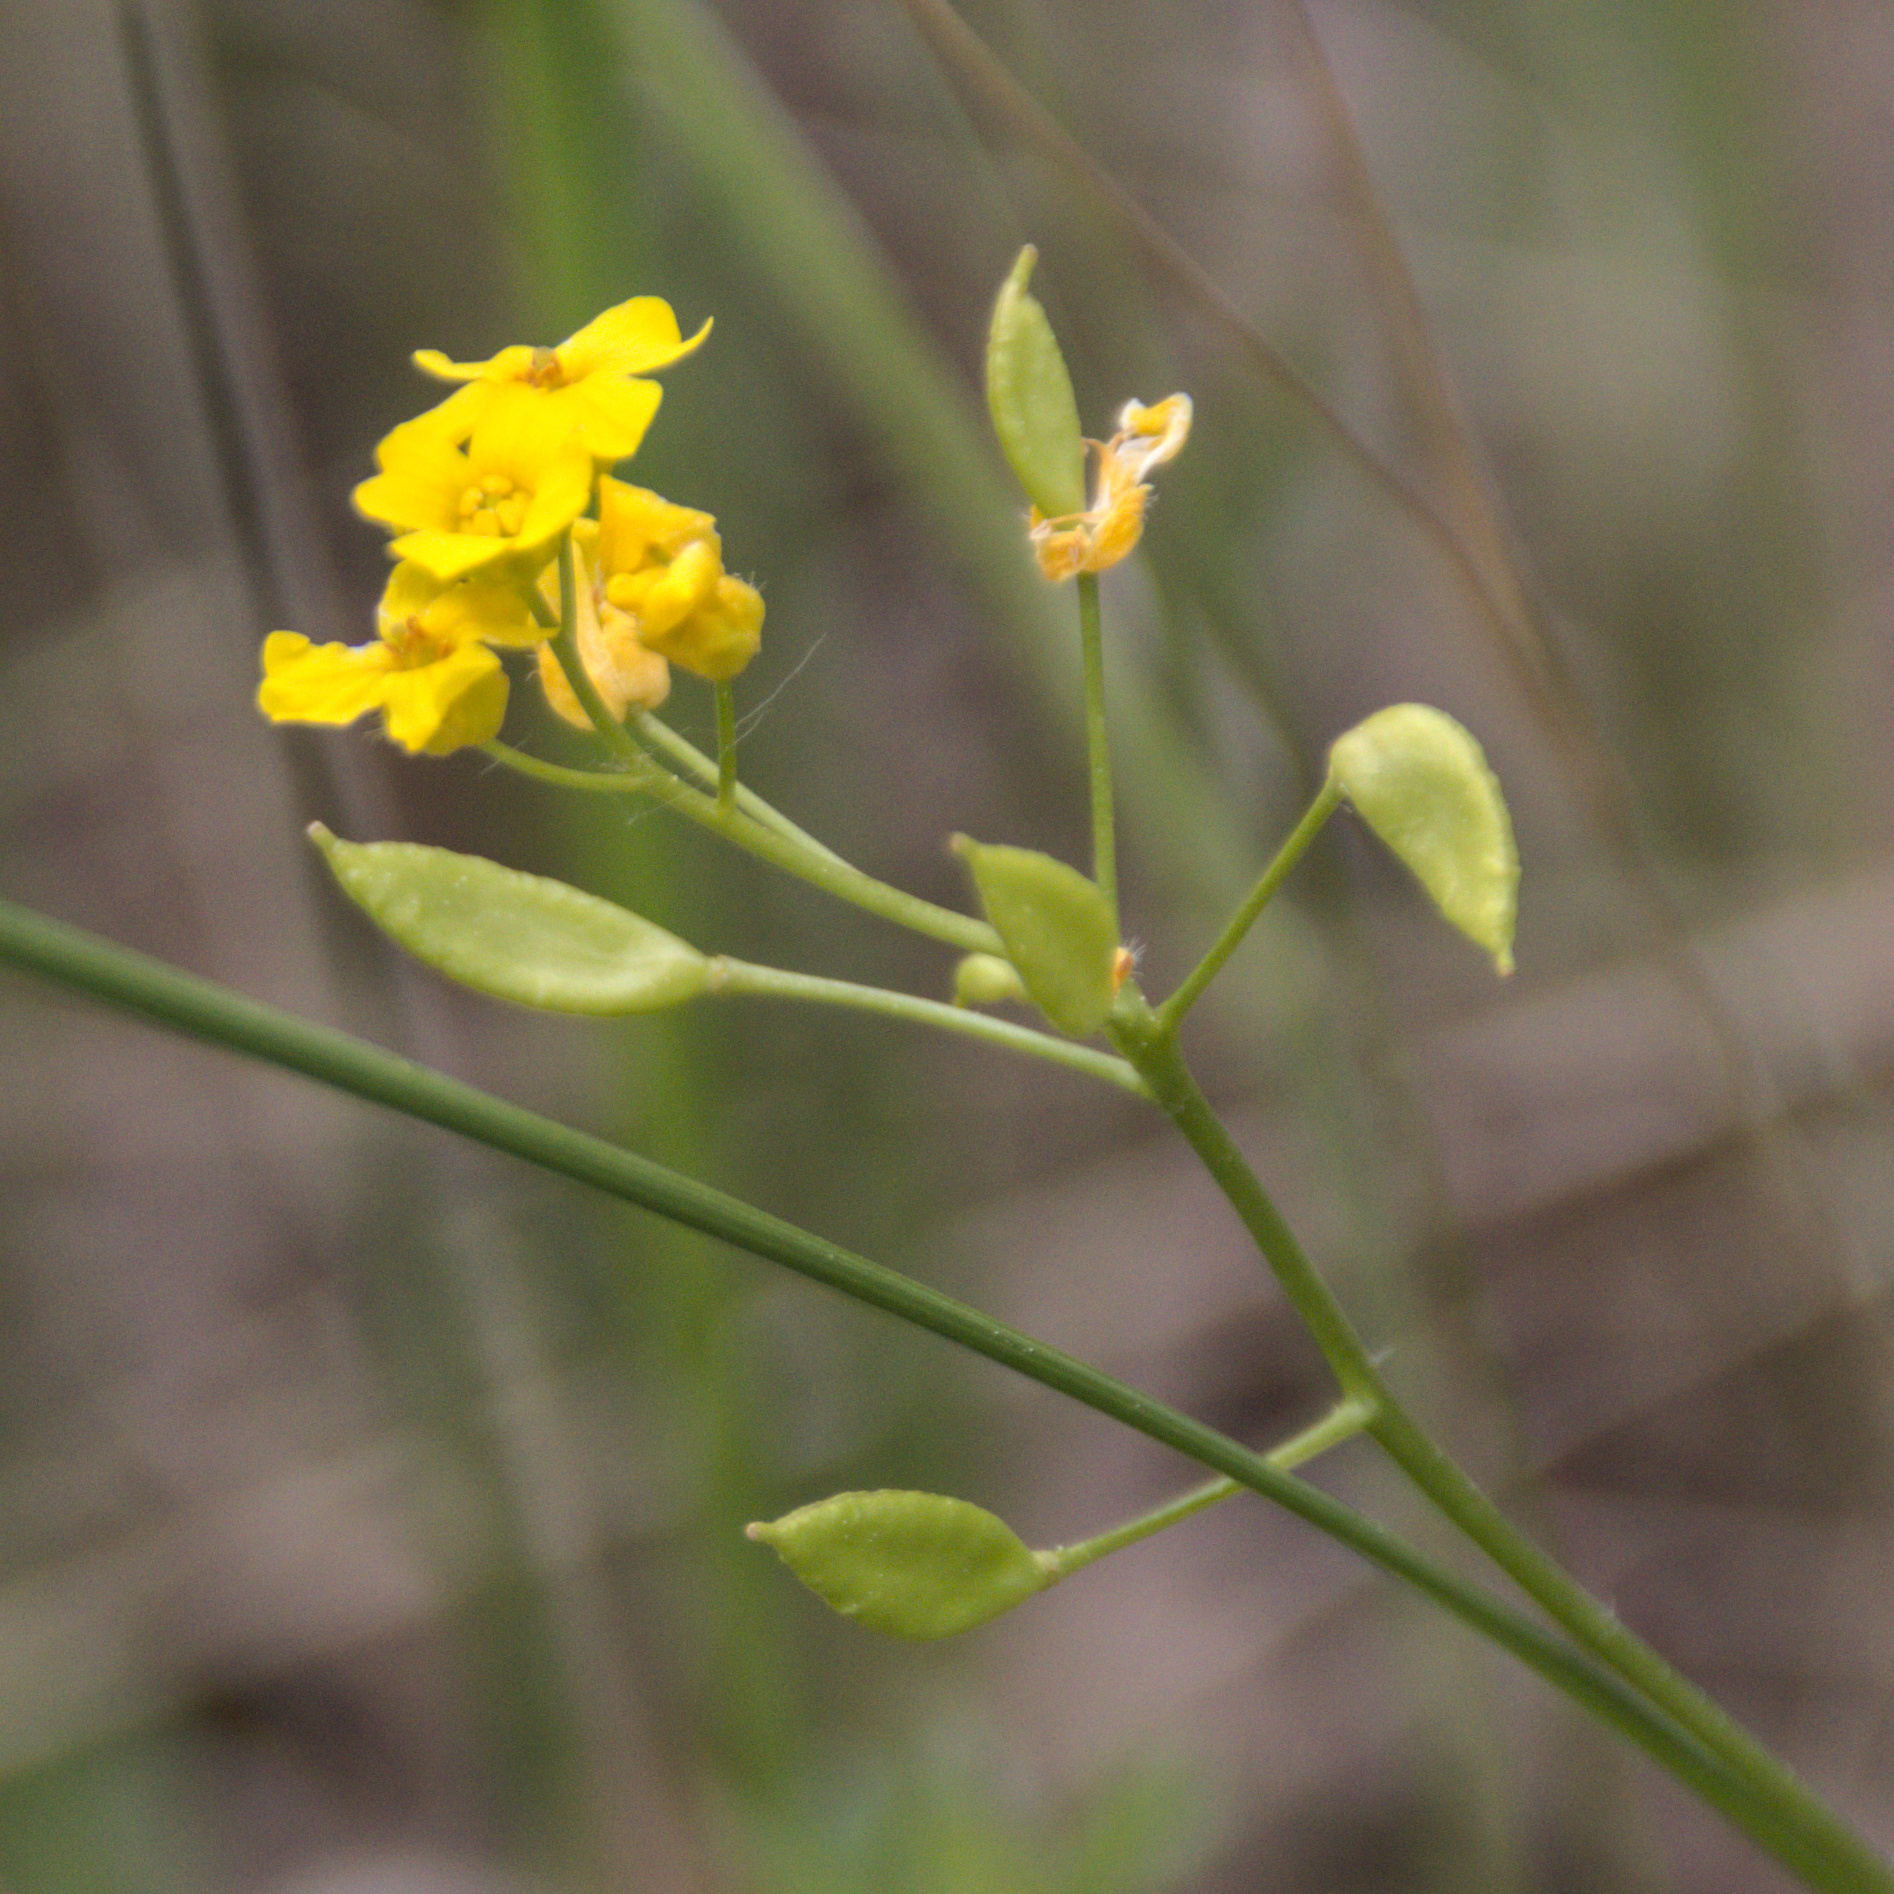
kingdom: Plantae
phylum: Tracheophyta
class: Magnoliopsida
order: Brassicales
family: Brassicaceae
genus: Draba
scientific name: Draba sibirica
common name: Siberian draba
